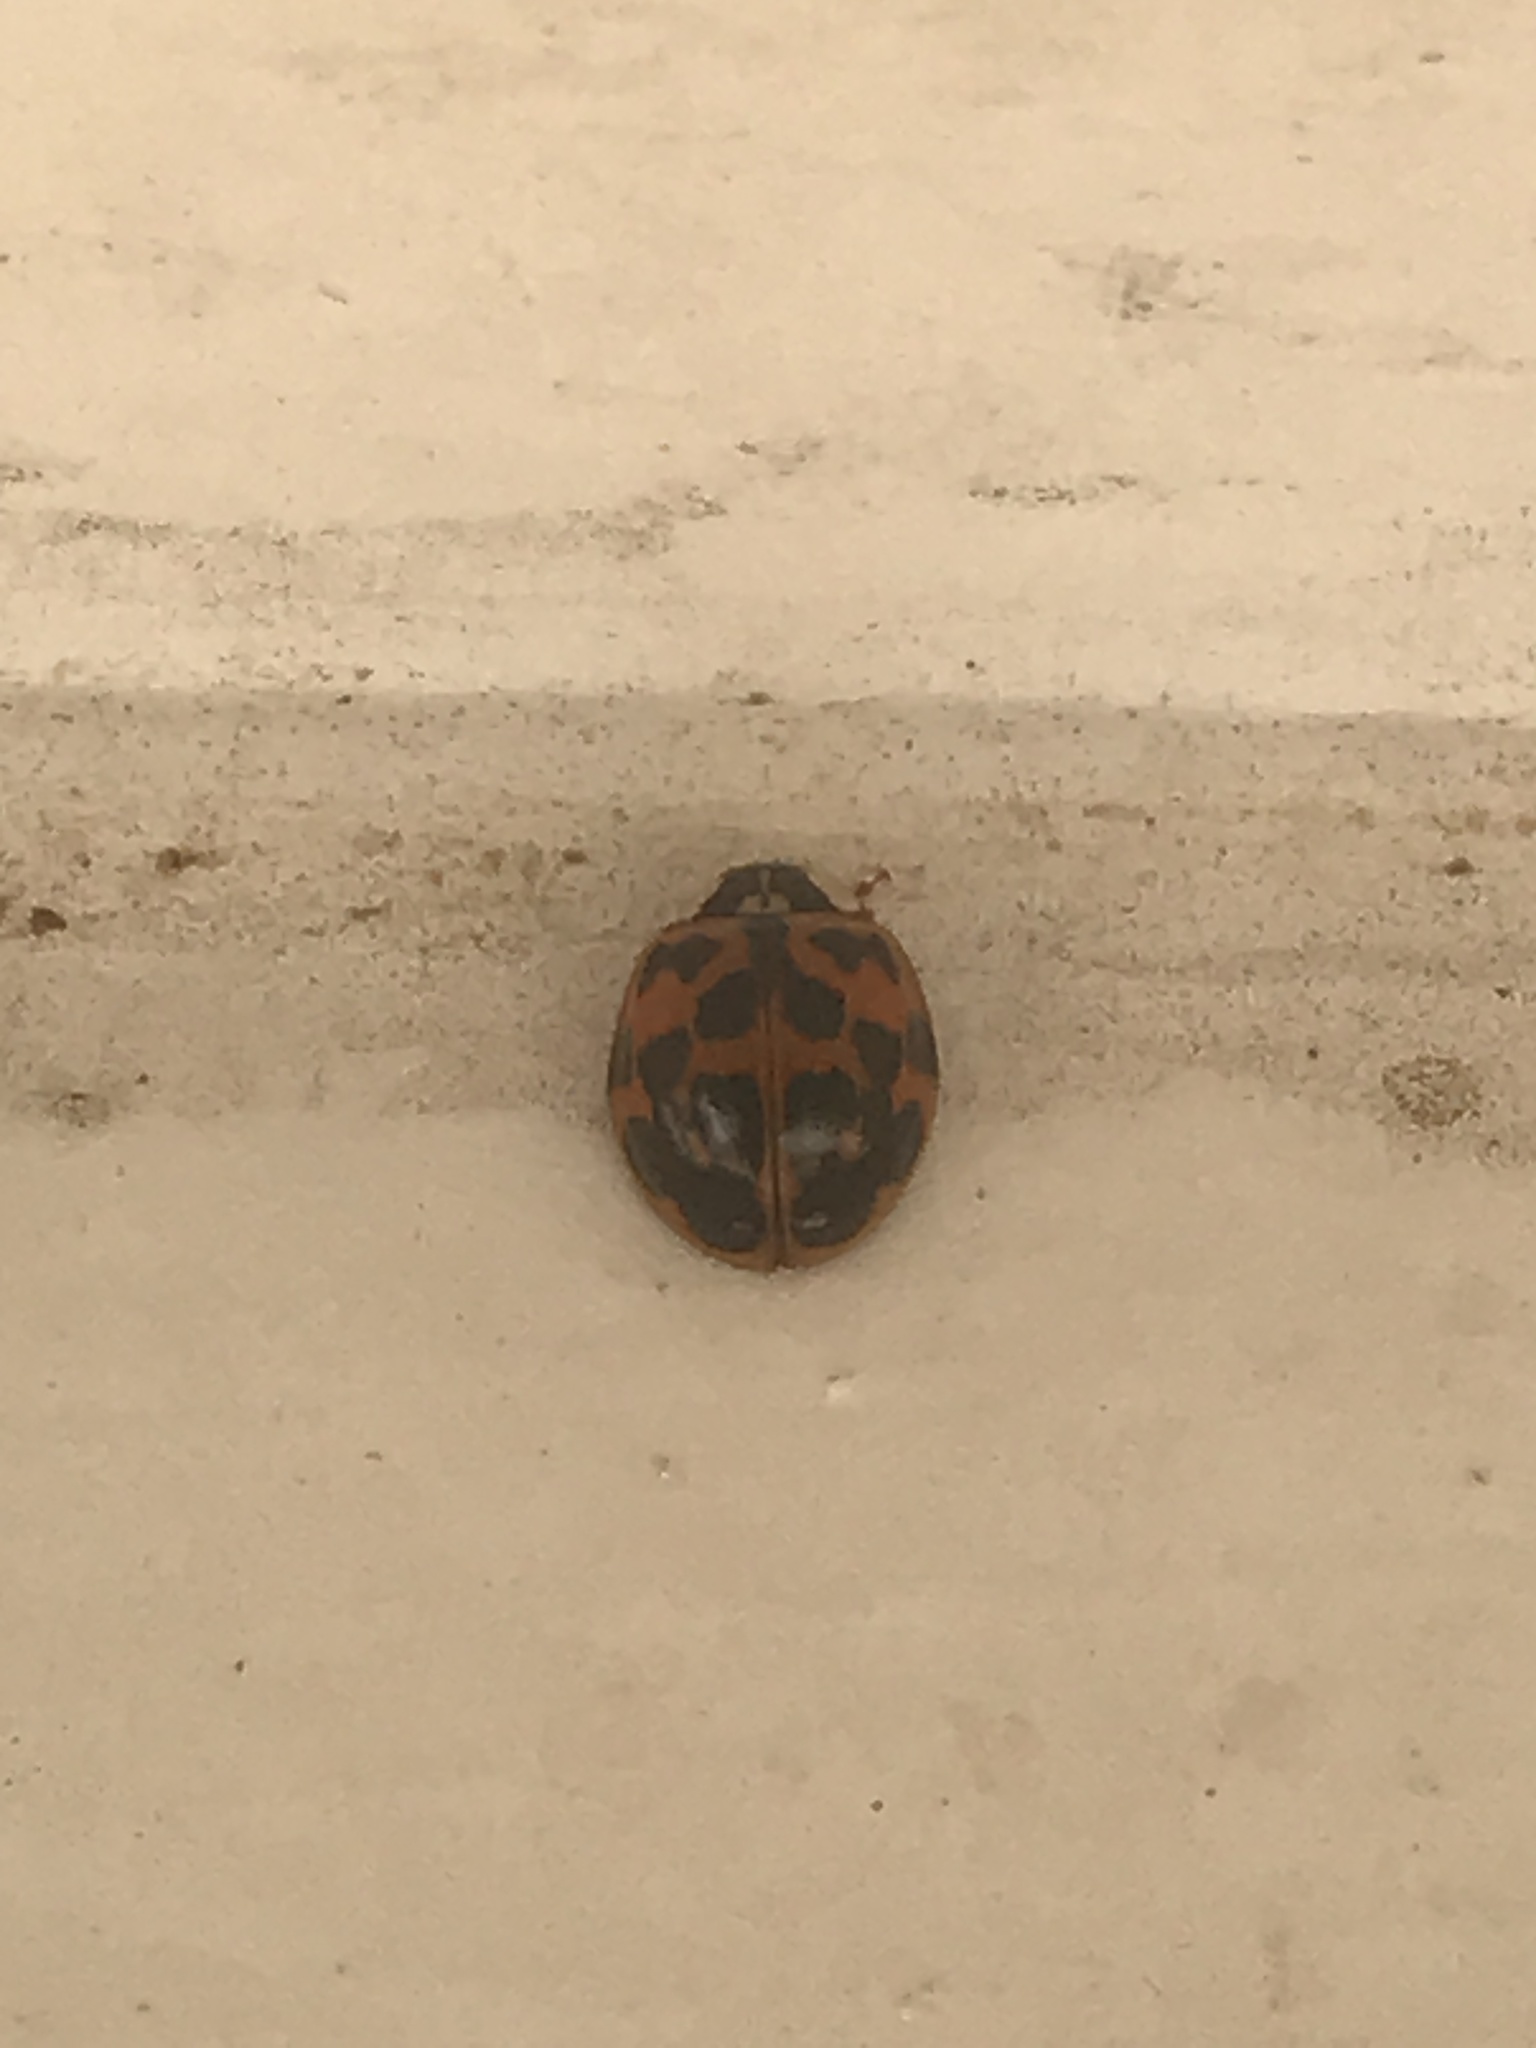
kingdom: Animalia
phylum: Arthropoda
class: Insecta
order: Coleoptera
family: Coccinellidae
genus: Harmonia
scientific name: Harmonia axyridis
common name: Harlequin ladybird
